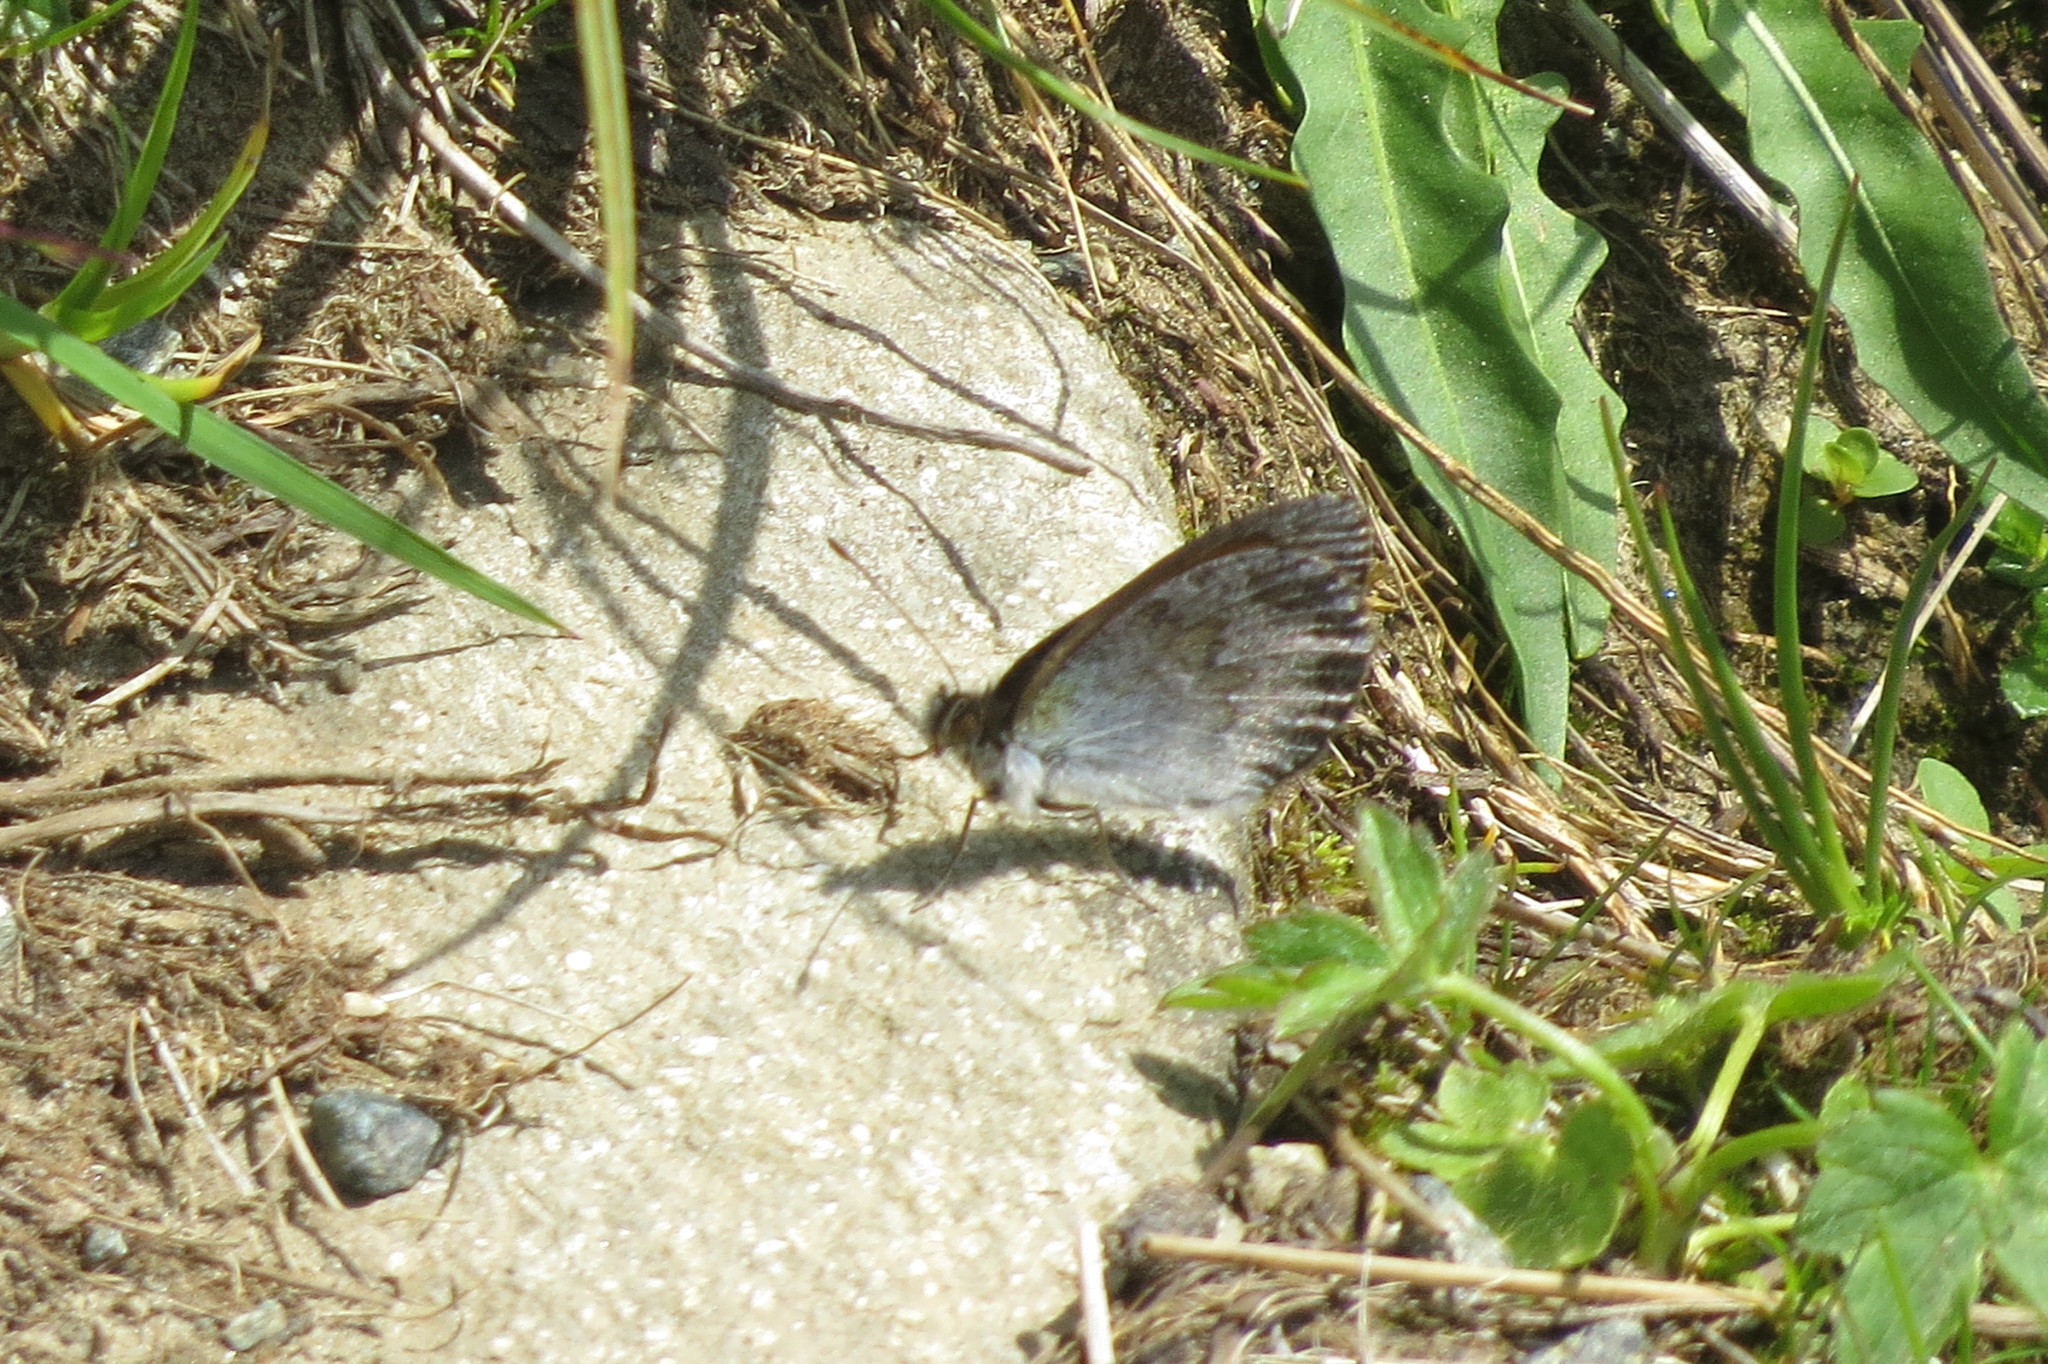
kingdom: Animalia
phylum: Arthropoda
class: Insecta
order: Lepidoptera
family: Nymphalidae
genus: Erebia
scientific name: Erebia tyndarus
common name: Swiss brassy ringlet
